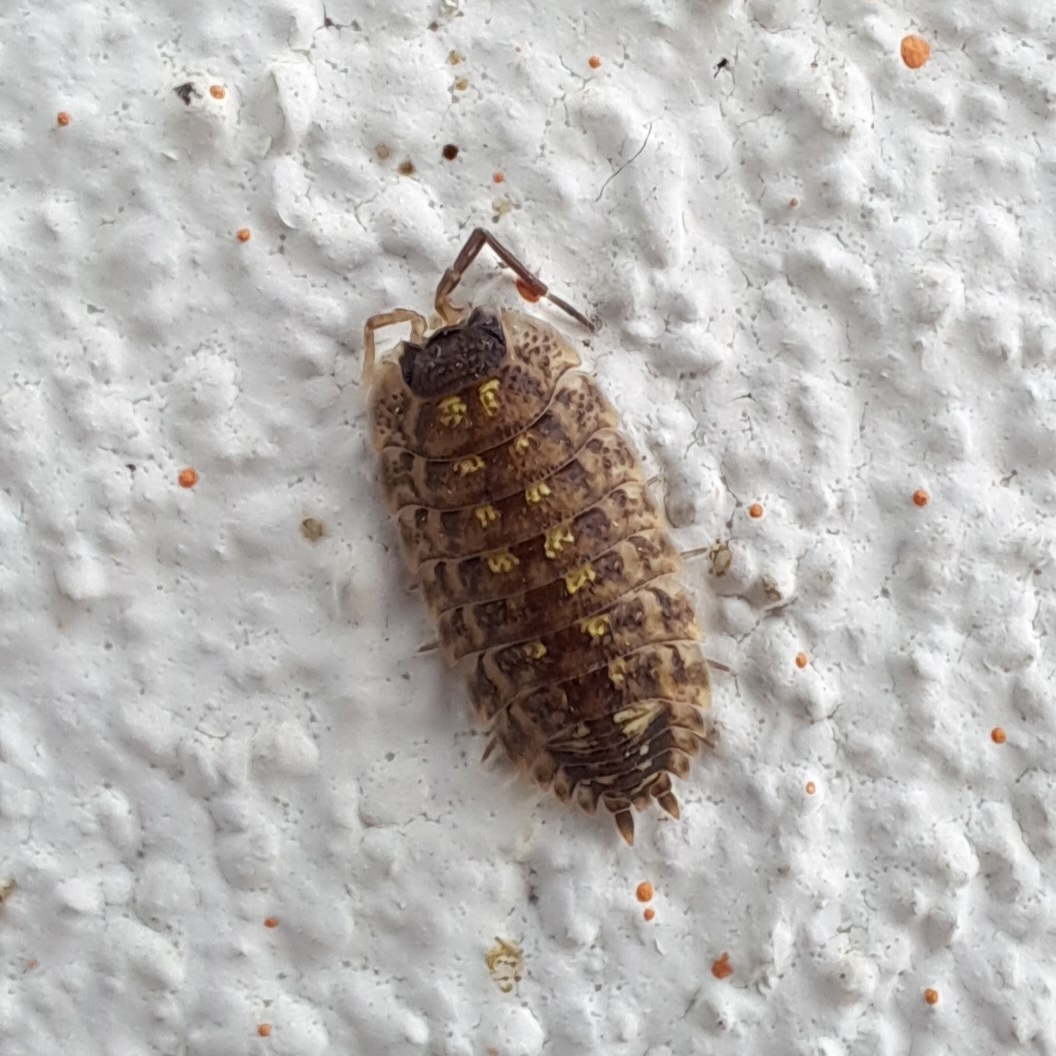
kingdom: Animalia
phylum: Arthropoda
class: Malacostraca
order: Isopoda
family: Porcellionidae
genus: Porcellio
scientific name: Porcellio spinicornis
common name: Painted woodlouse
